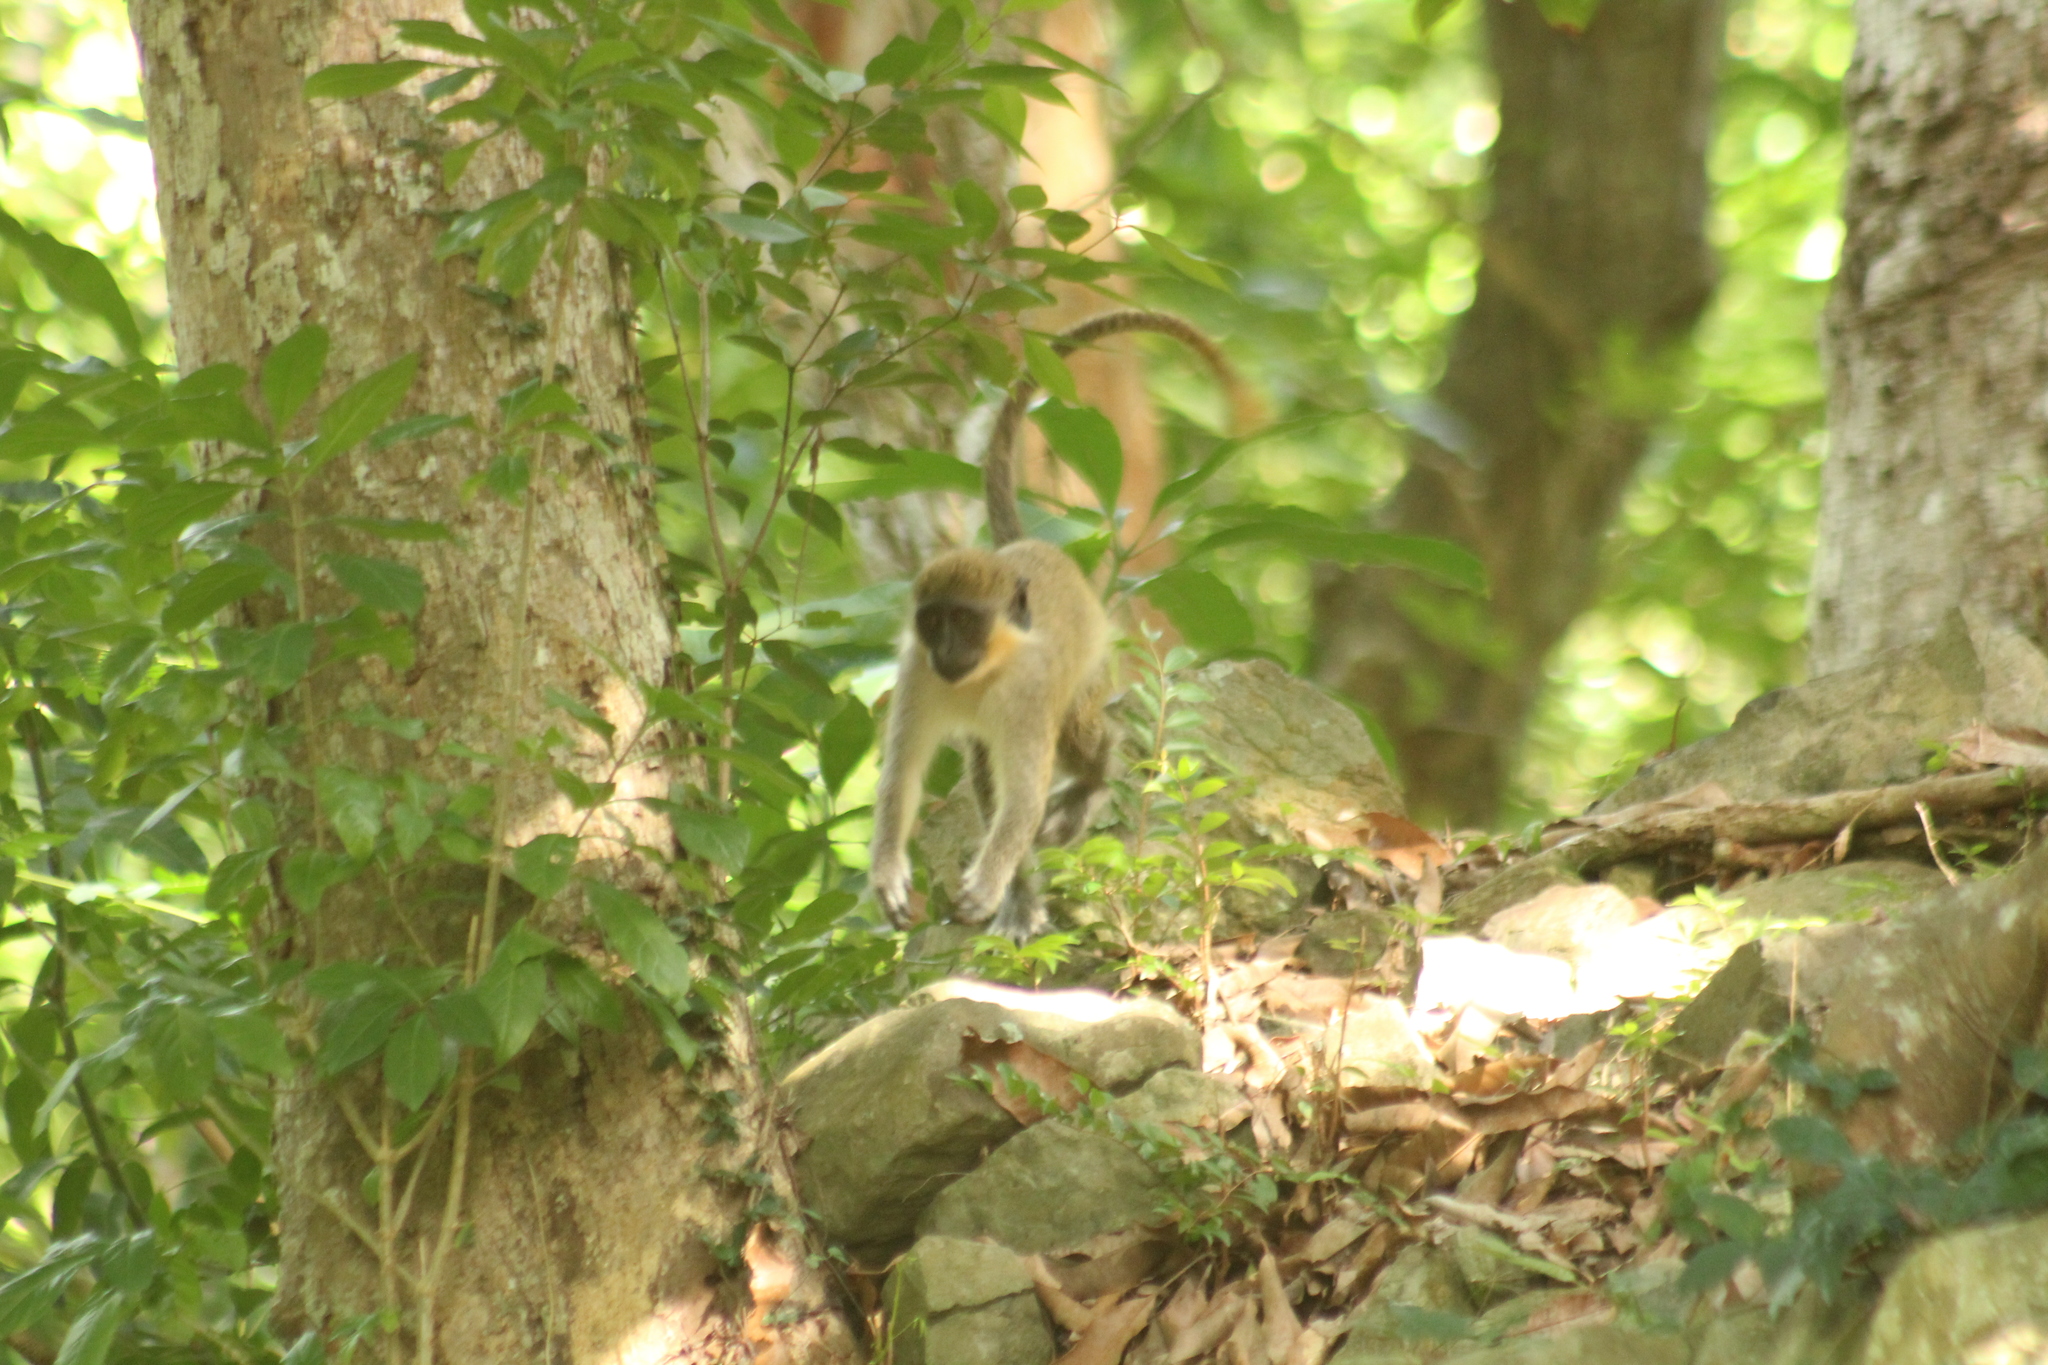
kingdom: Animalia
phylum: Chordata
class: Mammalia
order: Primates
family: Cercopithecidae
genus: Chlorocebus
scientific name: Chlorocebus sabaeus
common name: Green monkey
